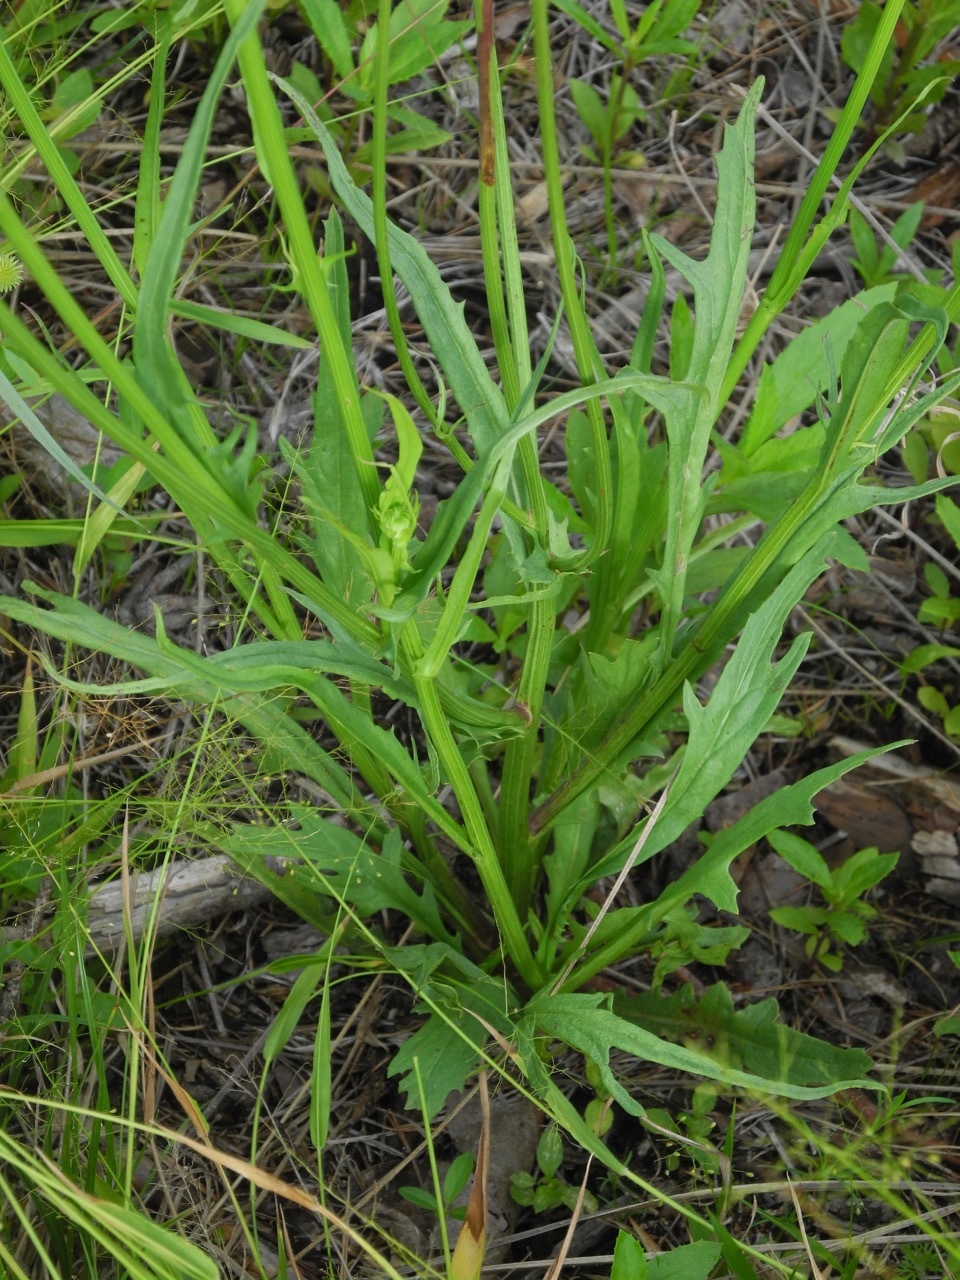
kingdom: Plantae
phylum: Tracheophyta
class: Magnoliopsida
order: Asterales
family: Asteraceae
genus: Pyrrhopappus
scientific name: Pyrrhopappus carolinianus
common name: Carolina desert-chicory
